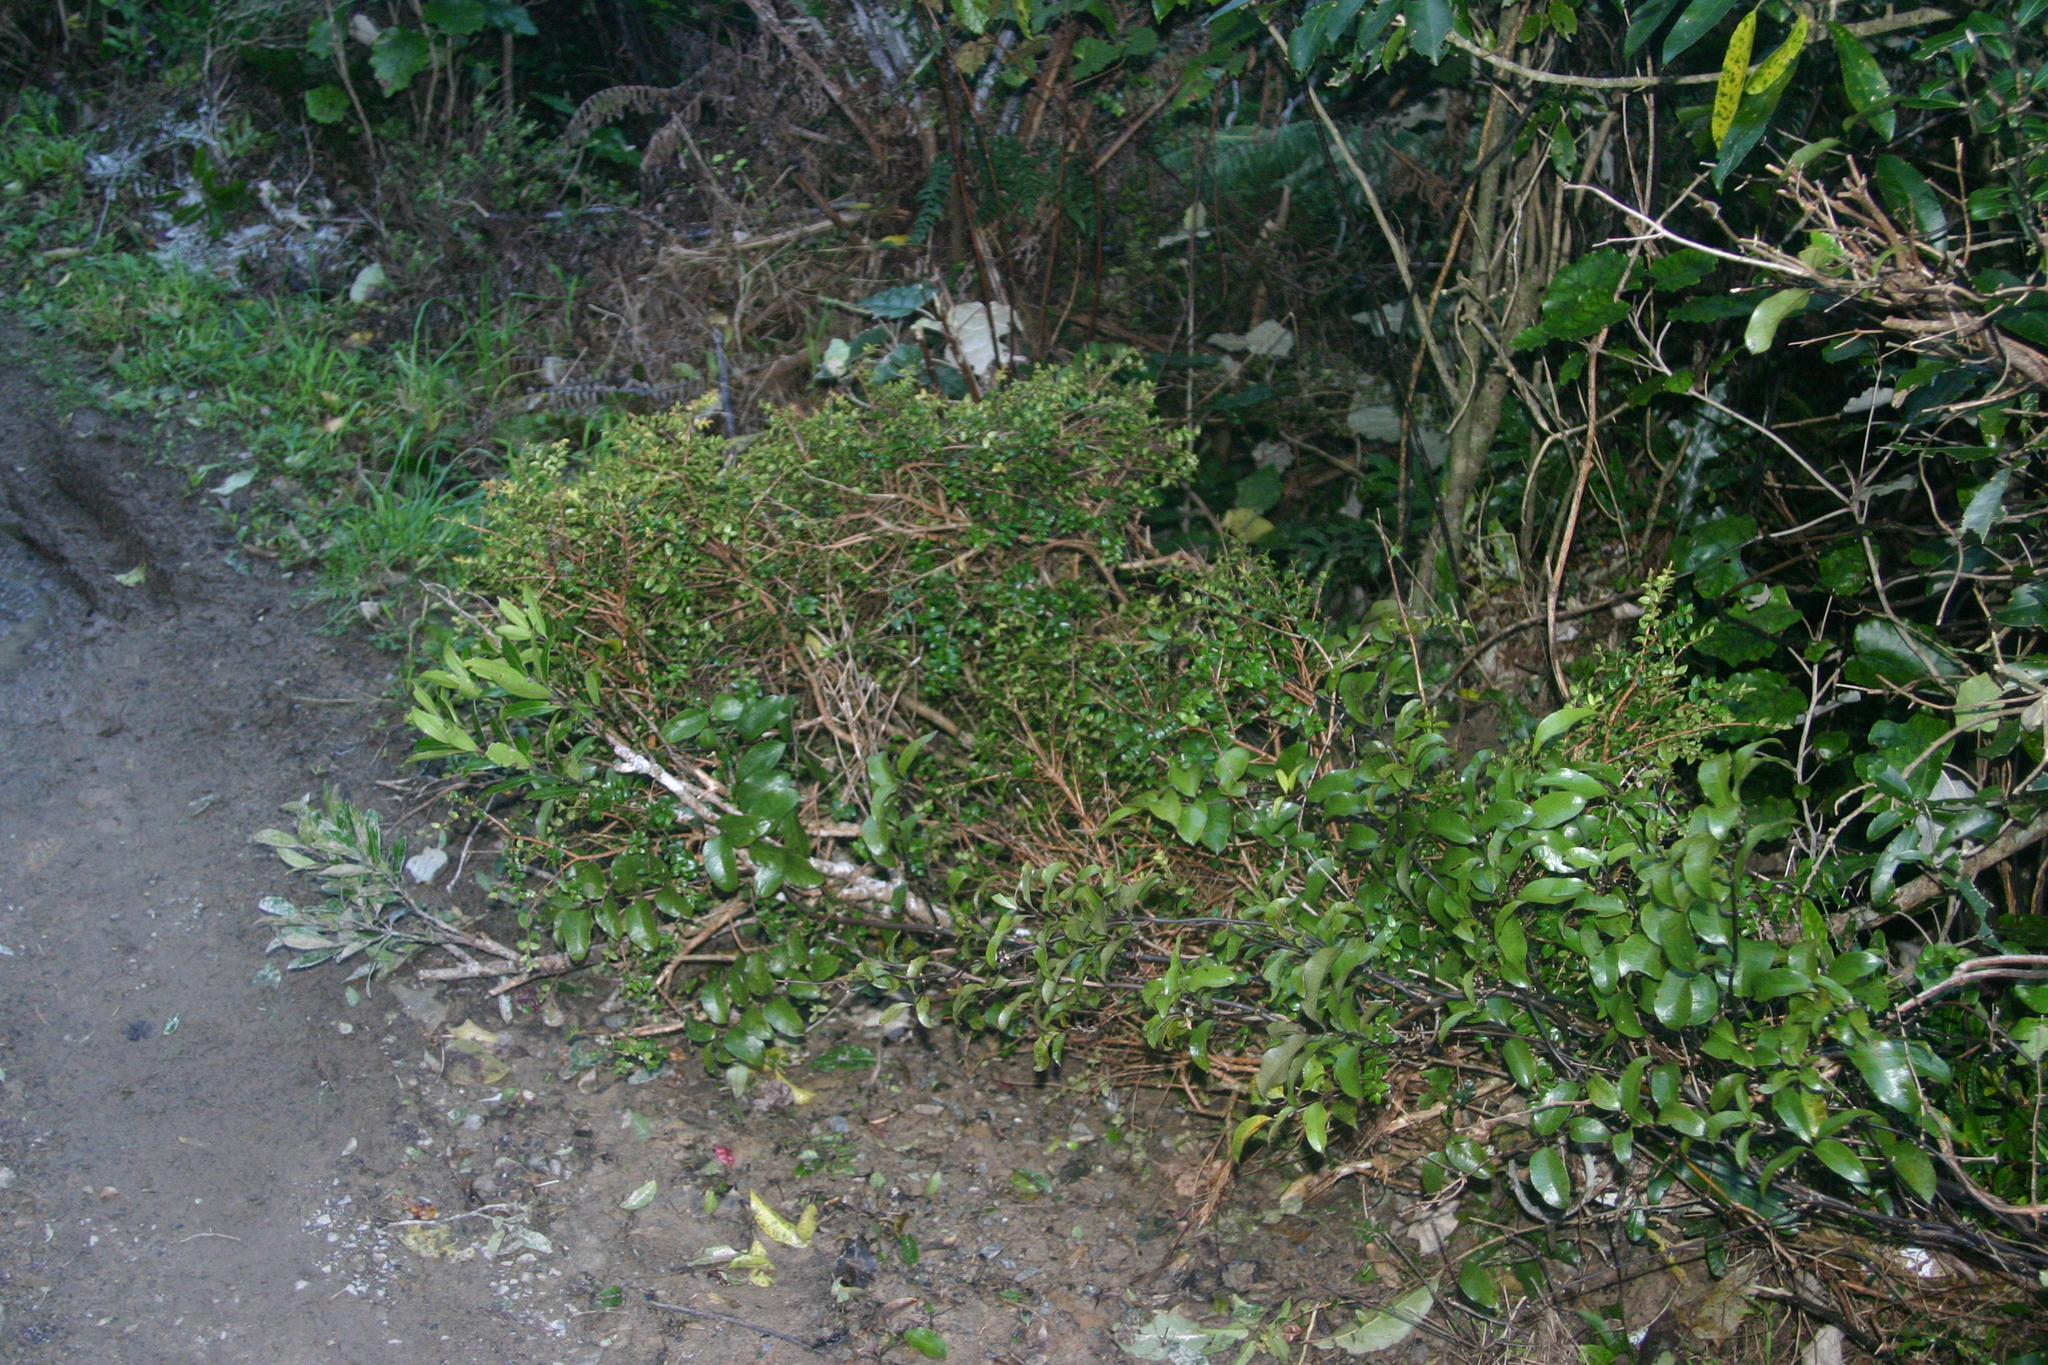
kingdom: Plantae
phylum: Tracheophyta
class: Magnoliopsida
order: Myrtales
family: Myrtaceae
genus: Metrosideros
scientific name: Metrosideros diffusa
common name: Small ratavine
